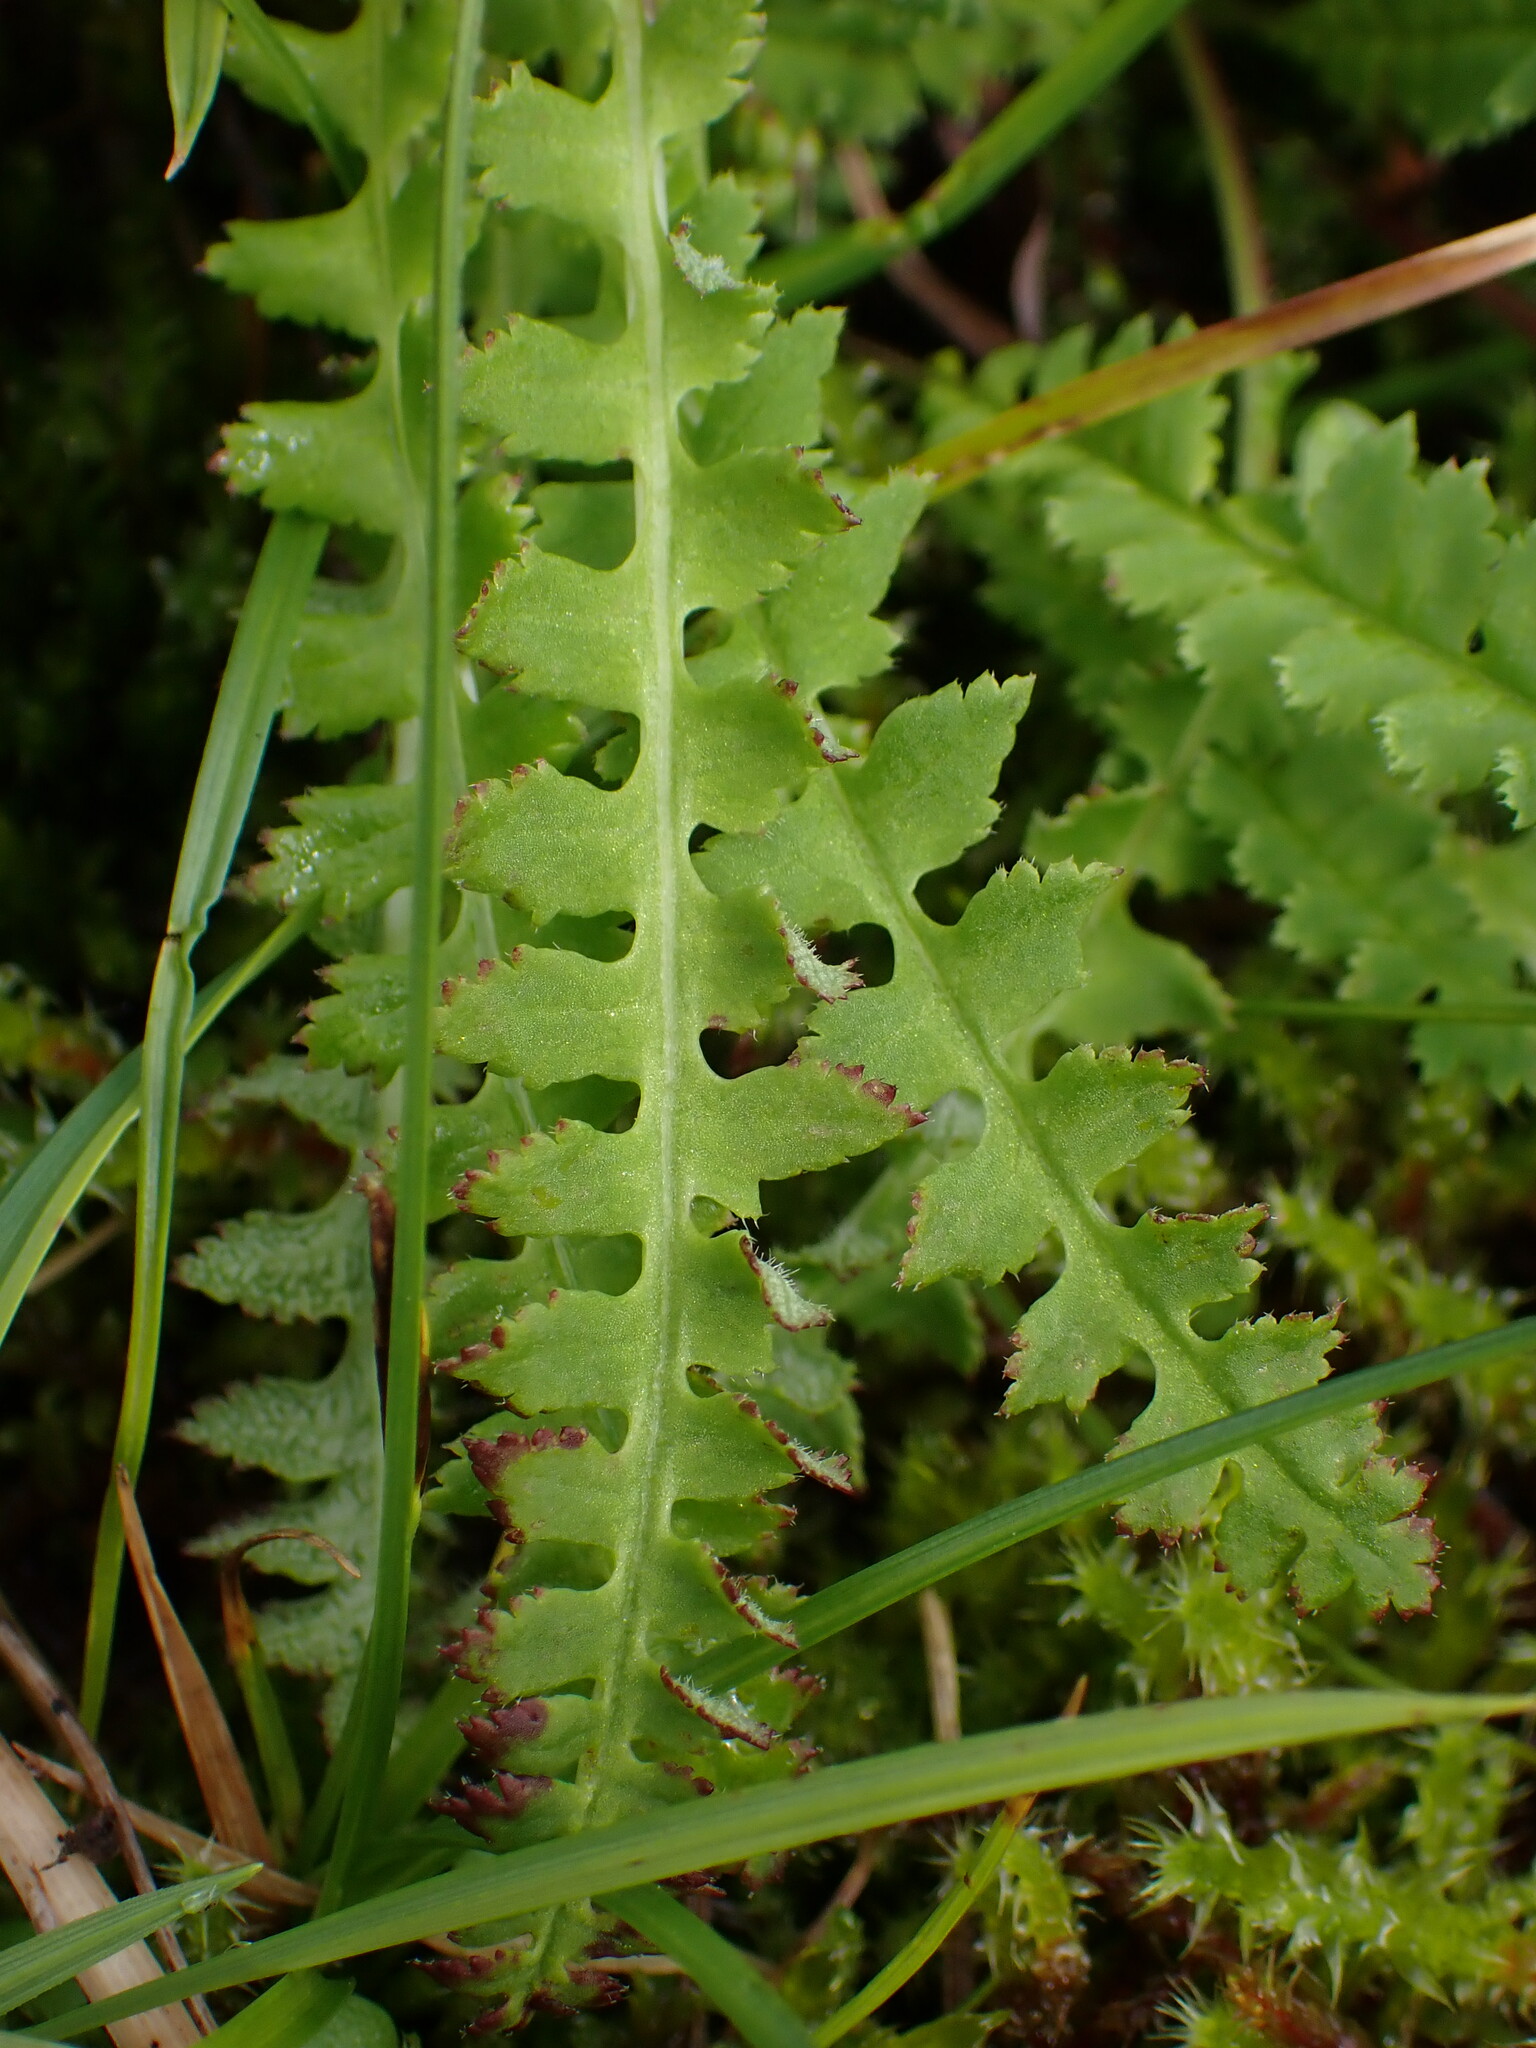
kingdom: Plantae
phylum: Tracheophyta
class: Magnoliopsida
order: Lamiales
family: Orobanchaceae
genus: Pedicularis
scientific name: Pedicularis oederi
